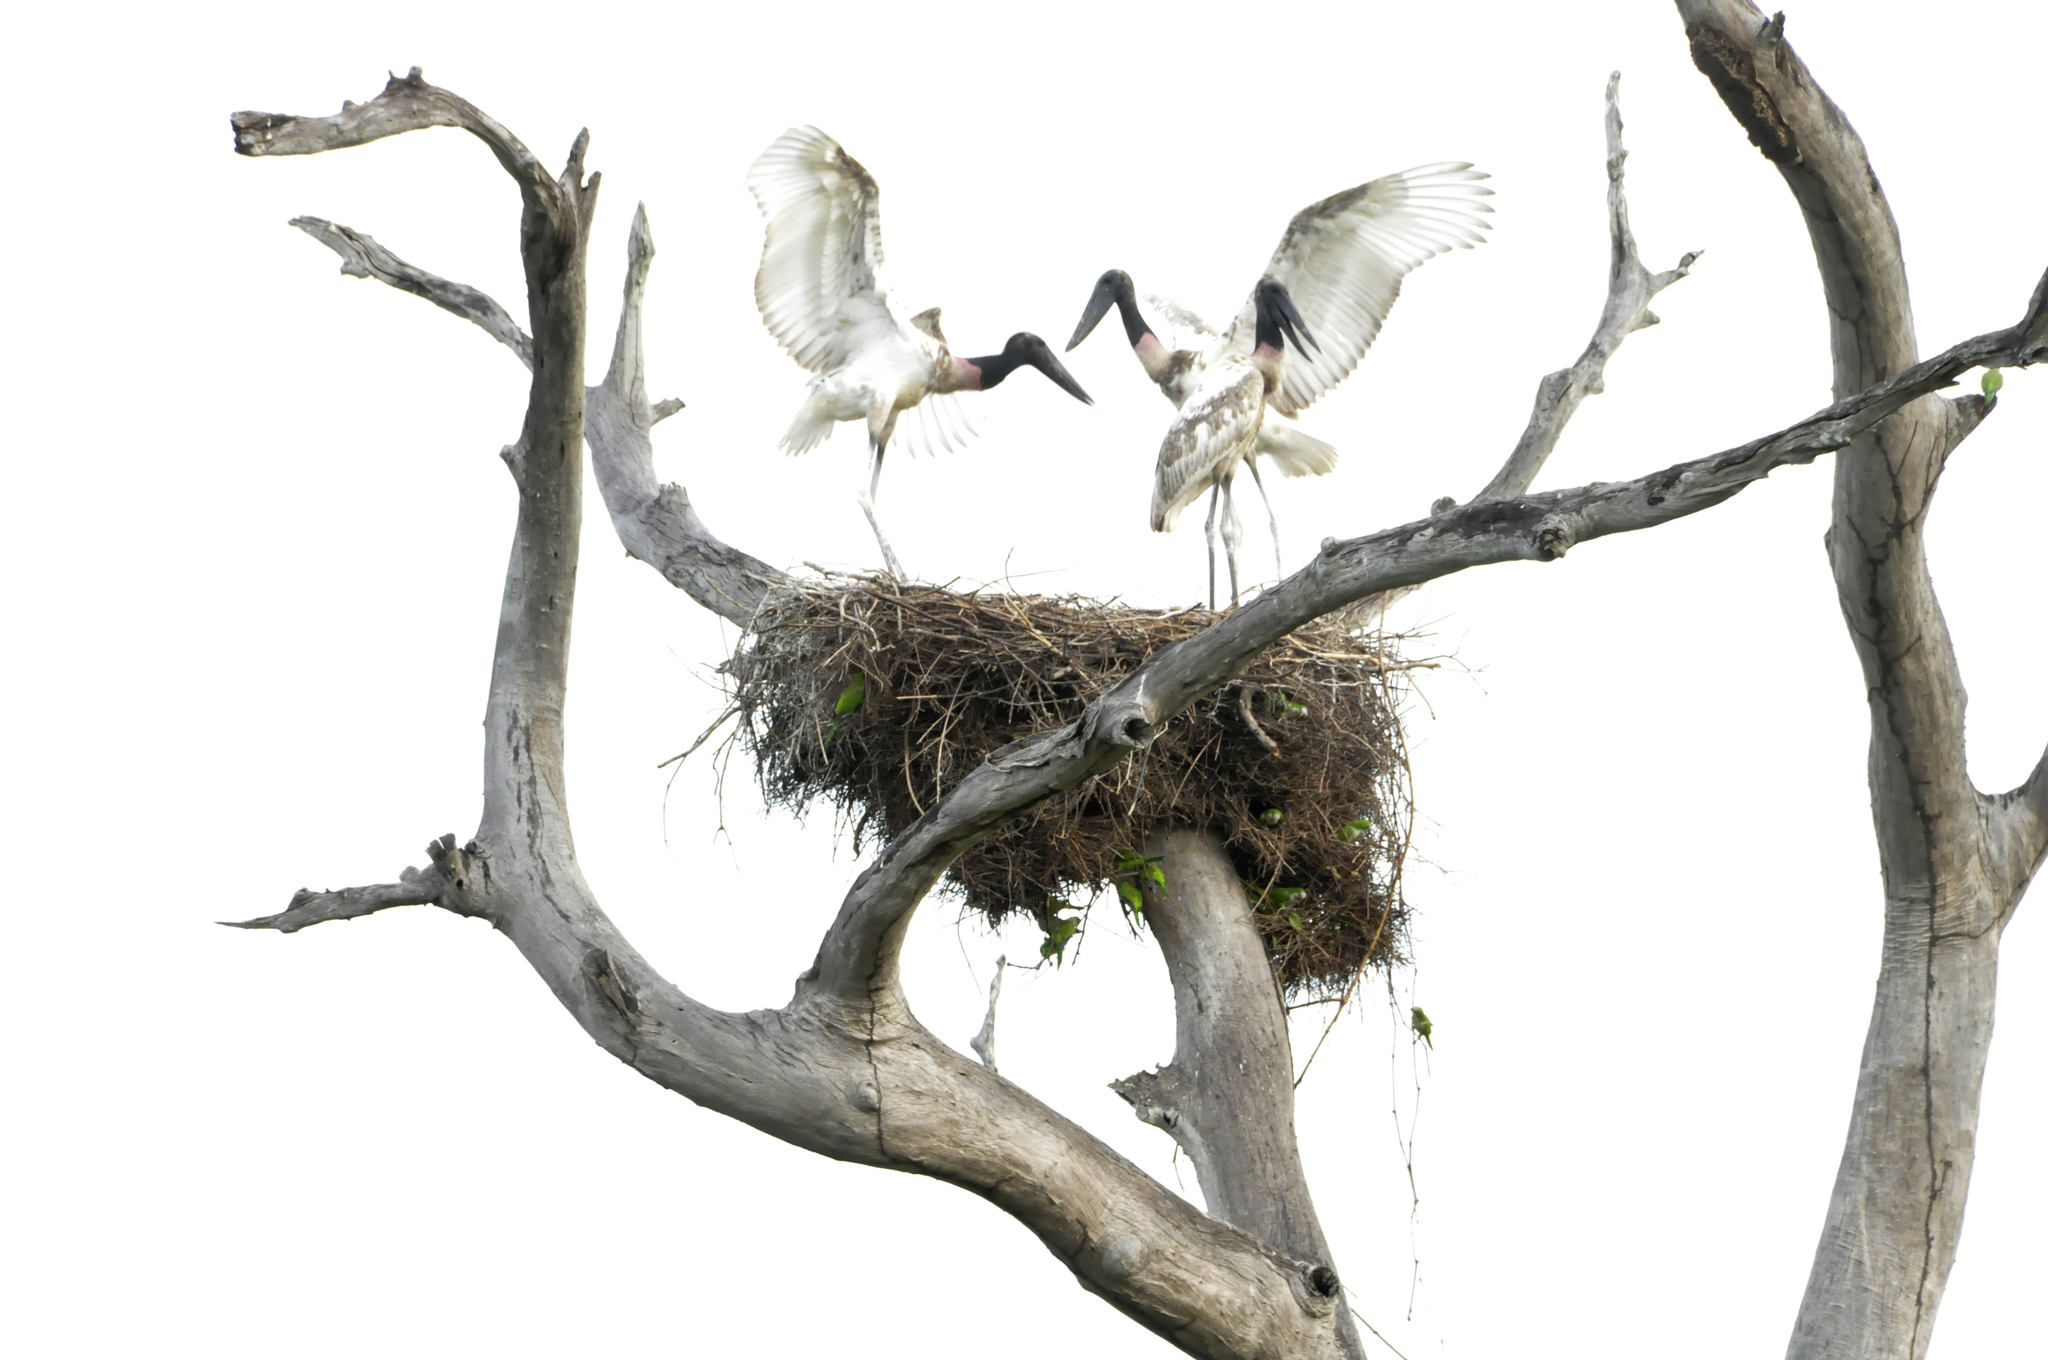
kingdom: Animalia
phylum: Chordata
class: Aves
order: Ciconiiformes
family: Ciconiidae
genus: Jabiru
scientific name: Jabiru mycteria
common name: Jabiru
